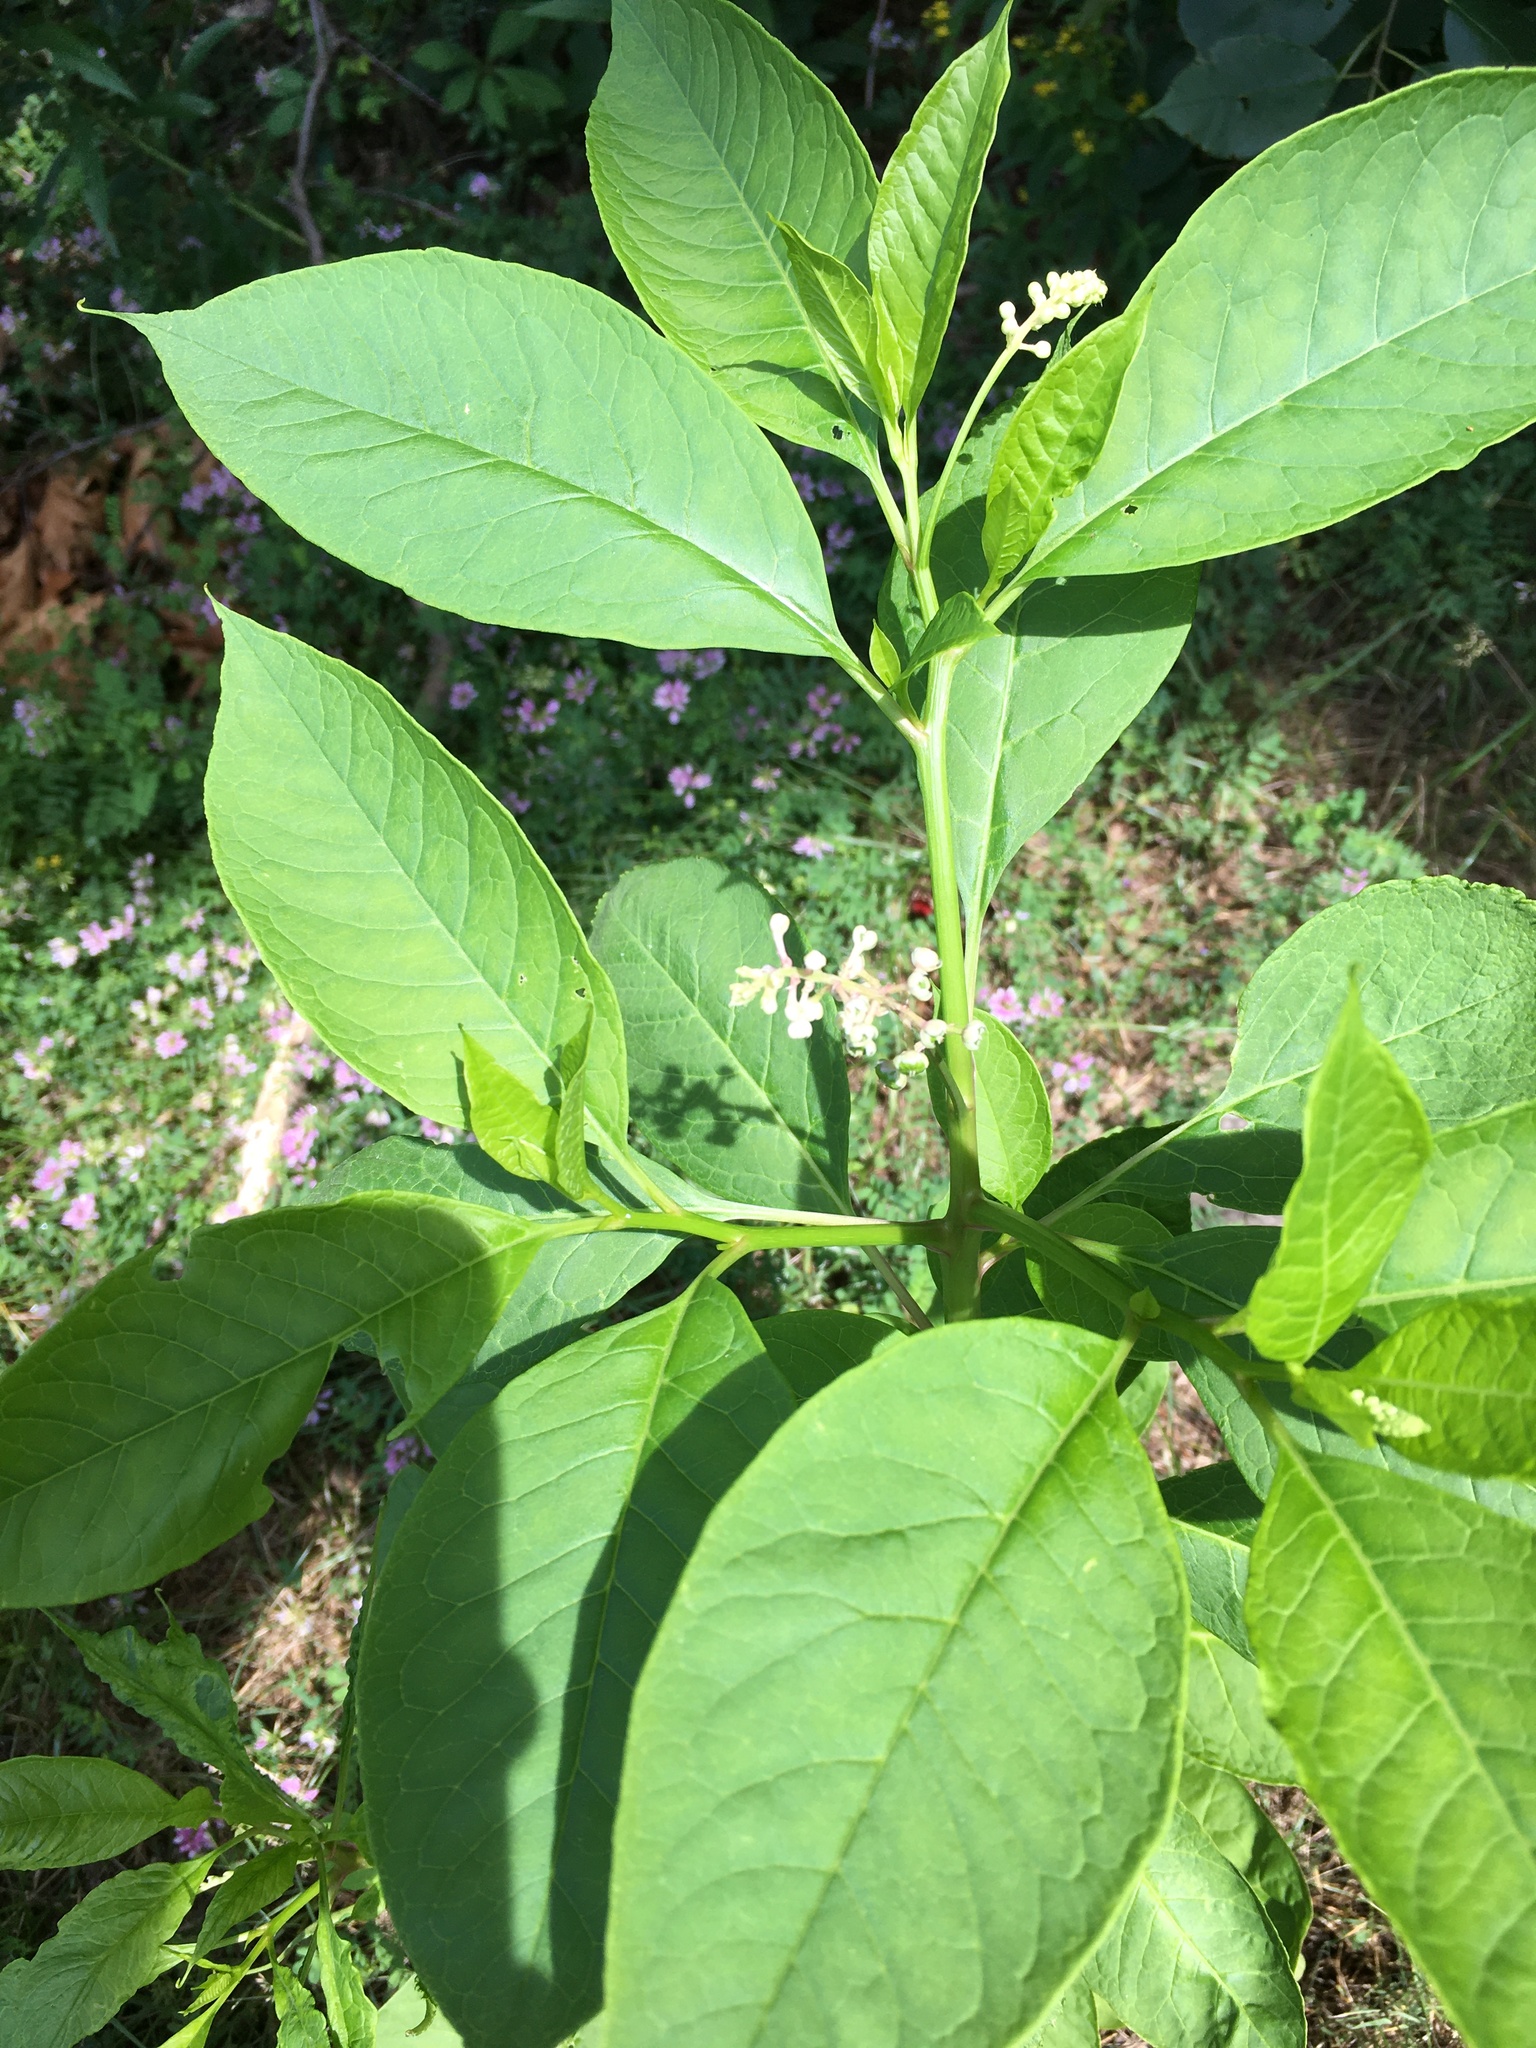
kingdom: Plantae
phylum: Tracheophyta
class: Magnoliopsida
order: Caryophyllales
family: Phytolaccaceae
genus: Phytolacca
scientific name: Phytolacca americana
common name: American pokeweed
